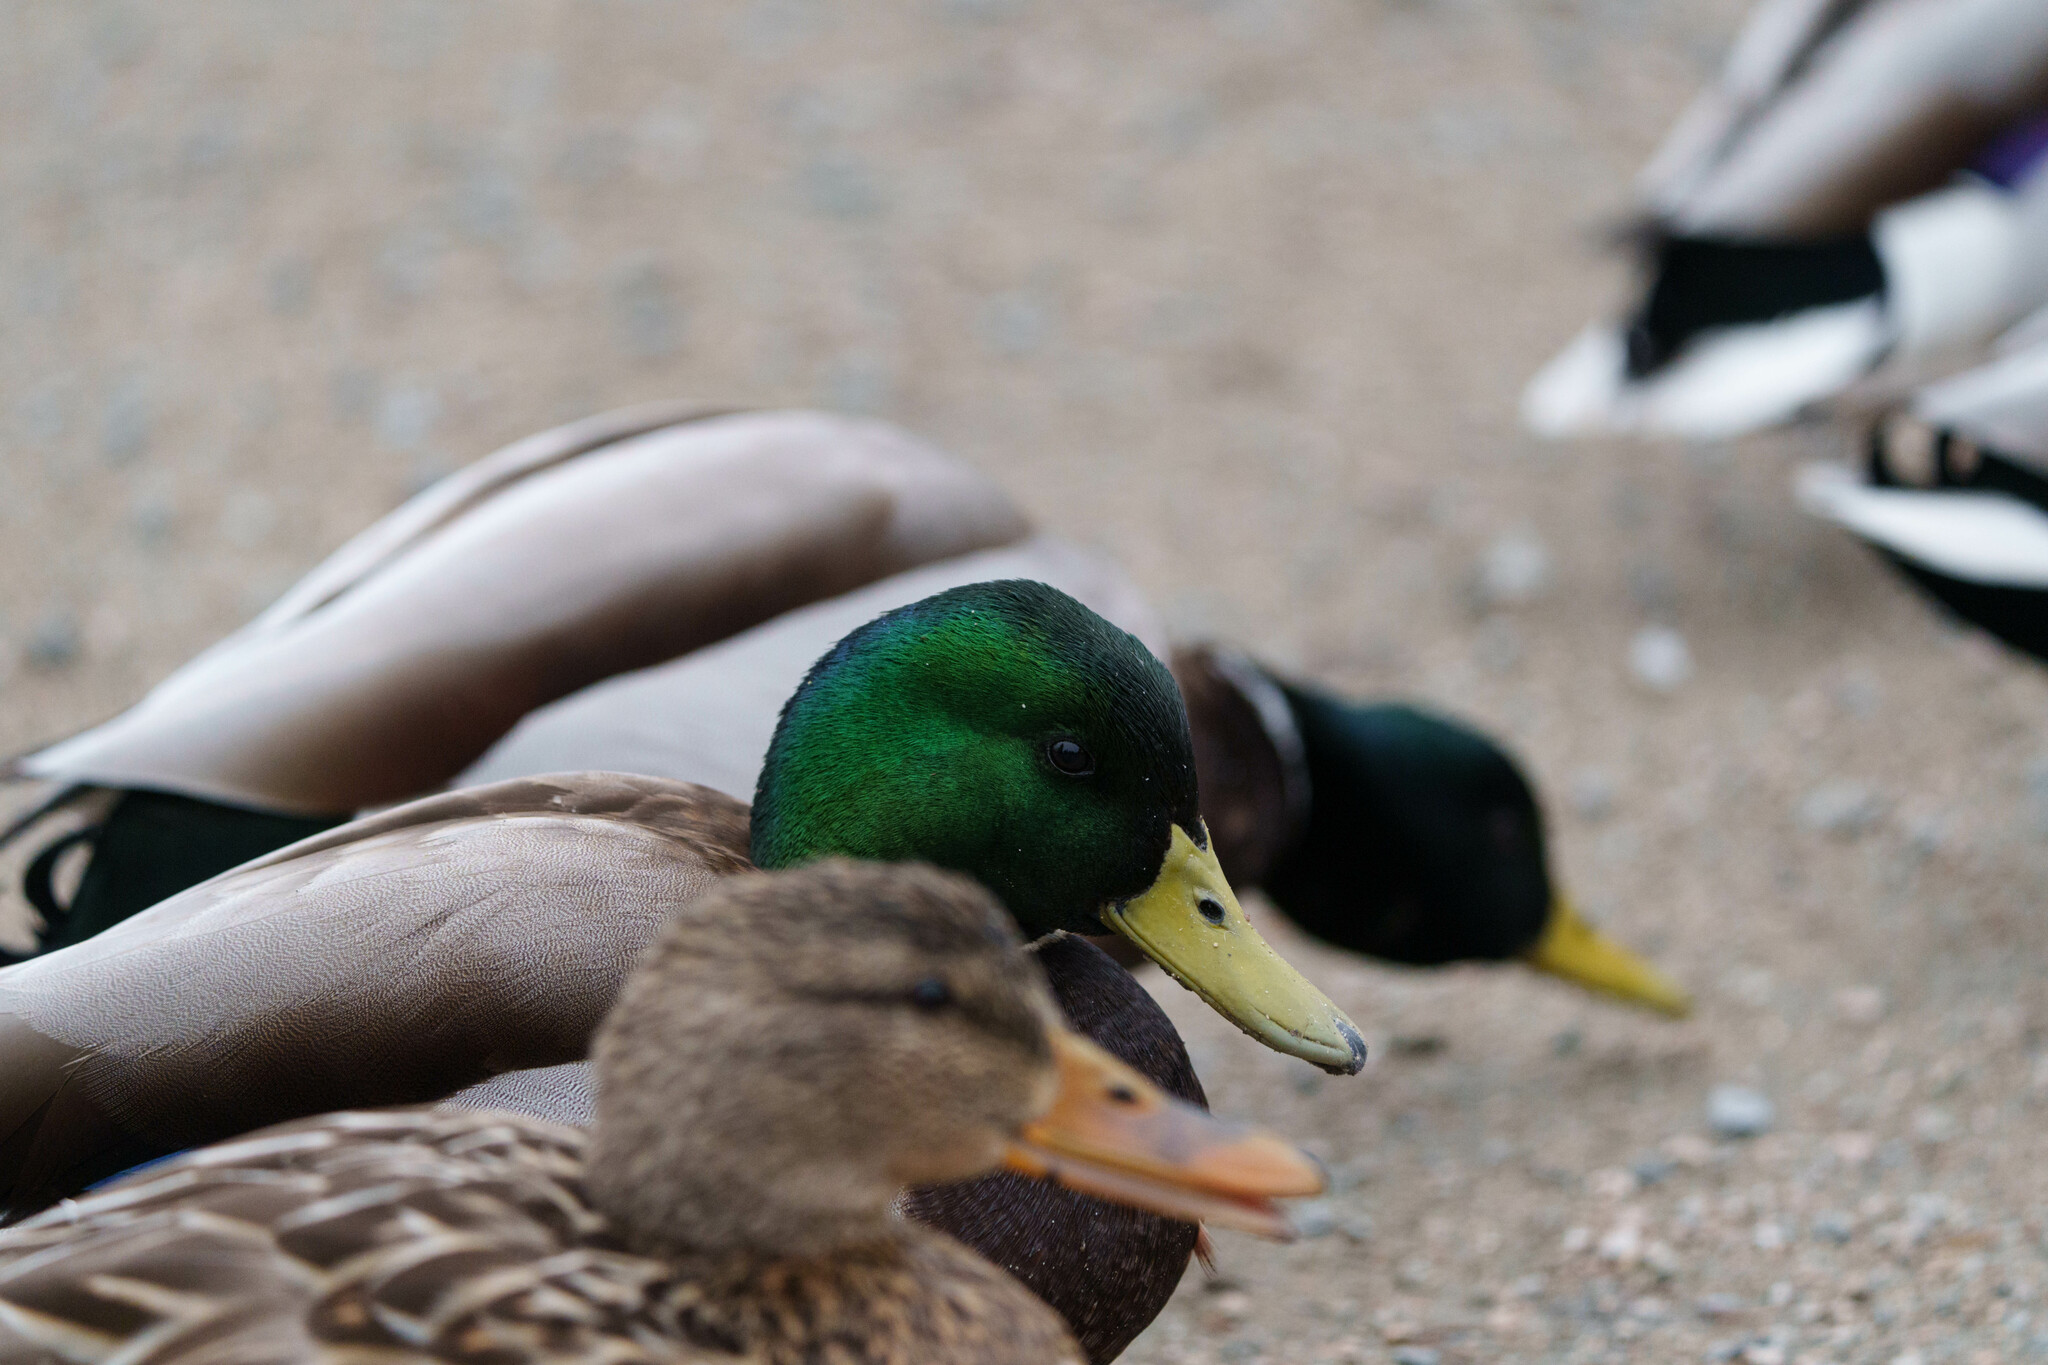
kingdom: Animalia
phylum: Chordata
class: Aves
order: Anseriformes
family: Anatidae
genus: Anas
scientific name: Anas platyrhynchos
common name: Mallard
